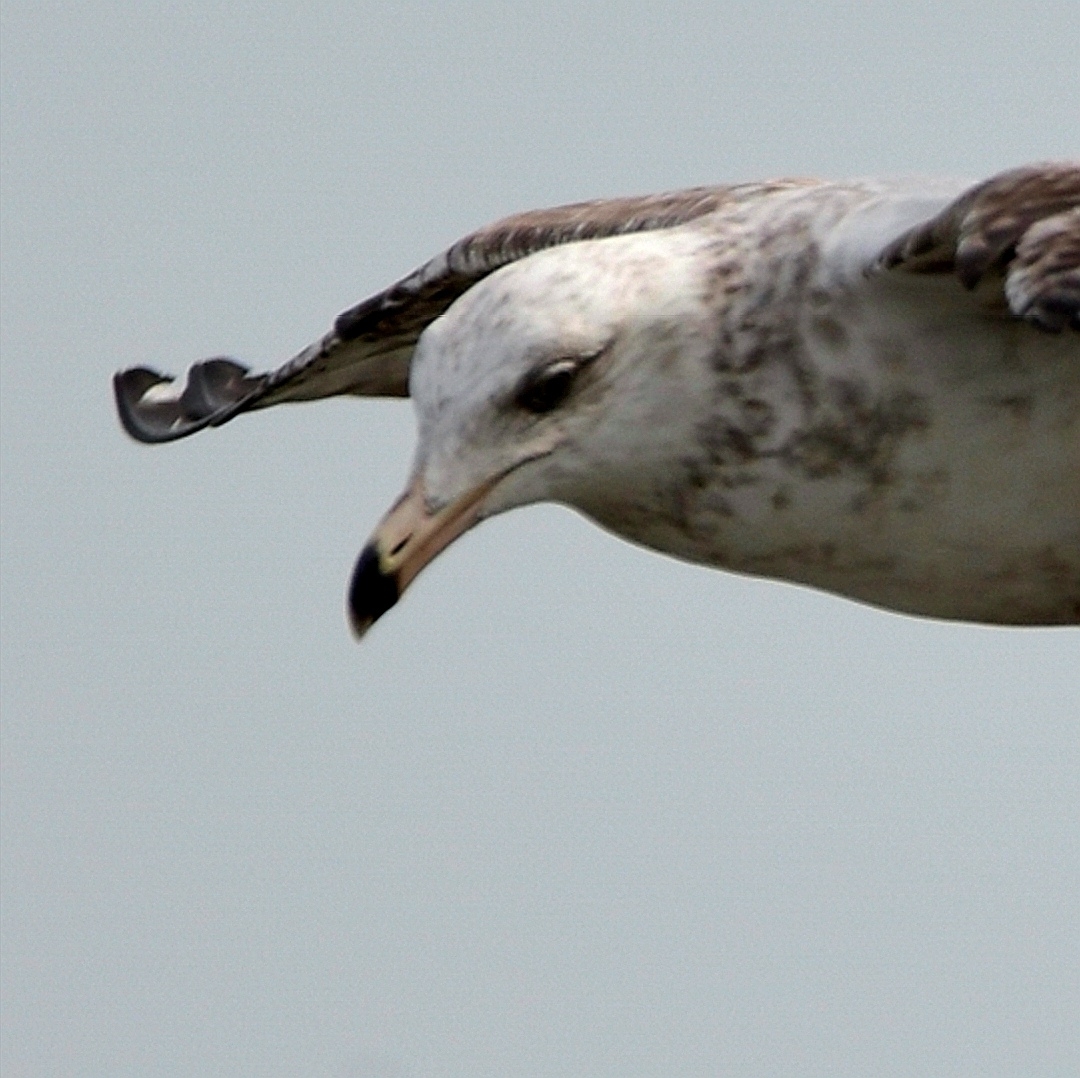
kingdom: Animalia
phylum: Chordata
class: Aves
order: Charadriiformes
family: Laridae
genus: Larus
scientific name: Larus argentatus
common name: Herring gull
